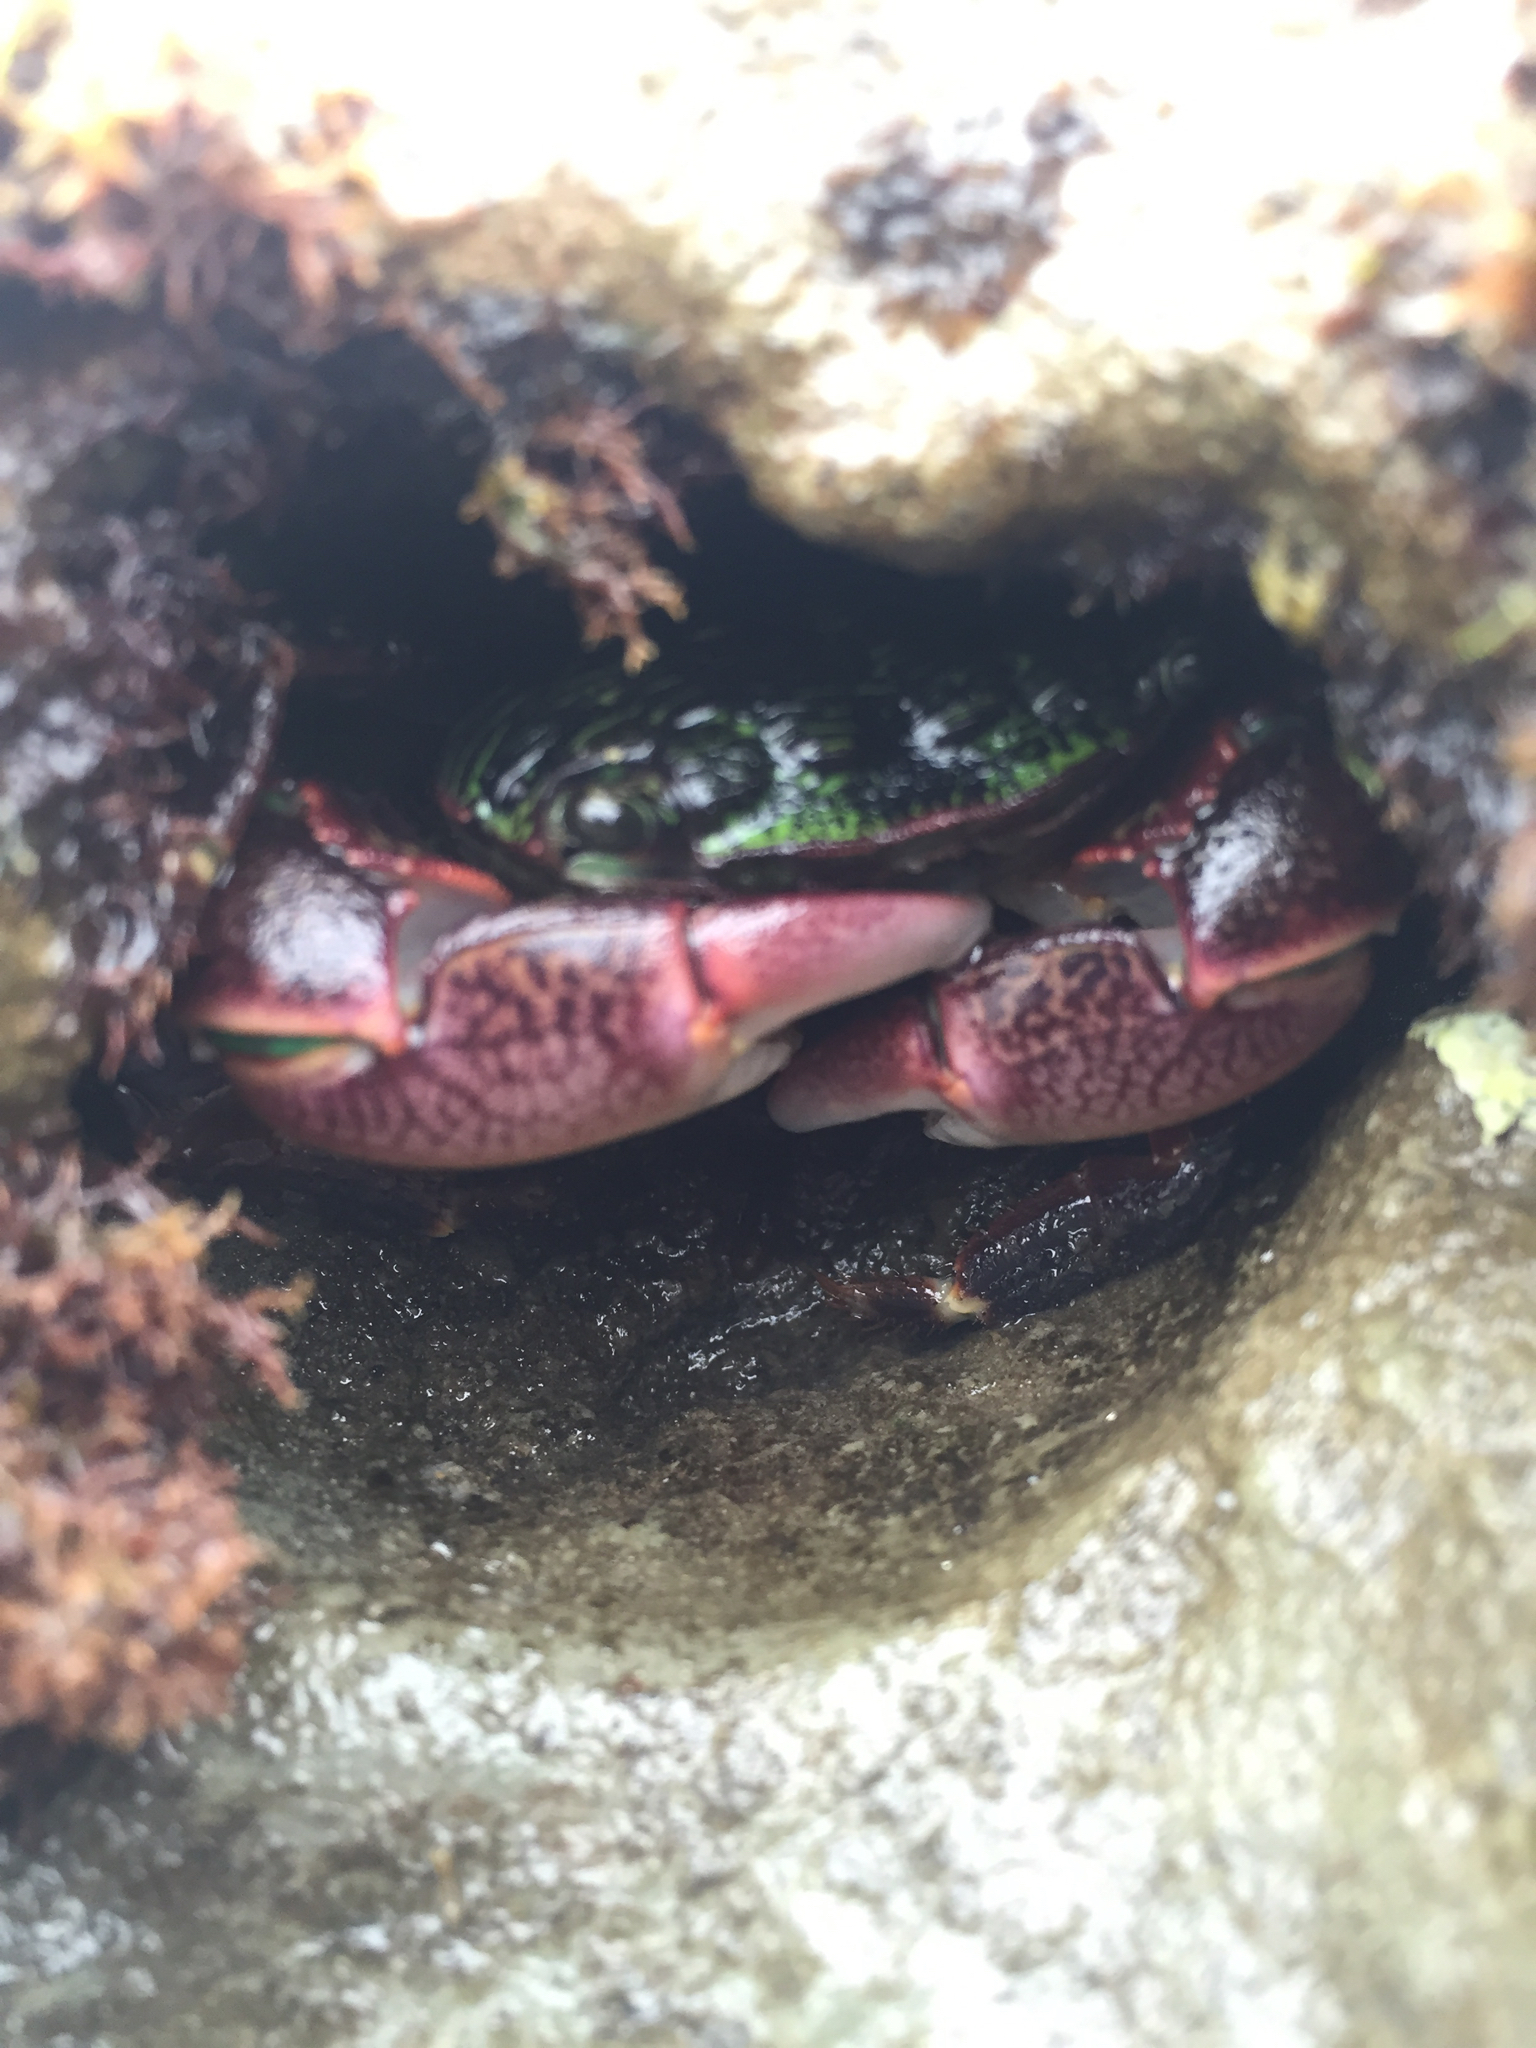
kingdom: Animalia
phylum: Arthropoda
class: Malacostraca
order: Decapoda
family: Grapsidae
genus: Pachygrapsus
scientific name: Pachygrapsus crassipes
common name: Striped shore crab
